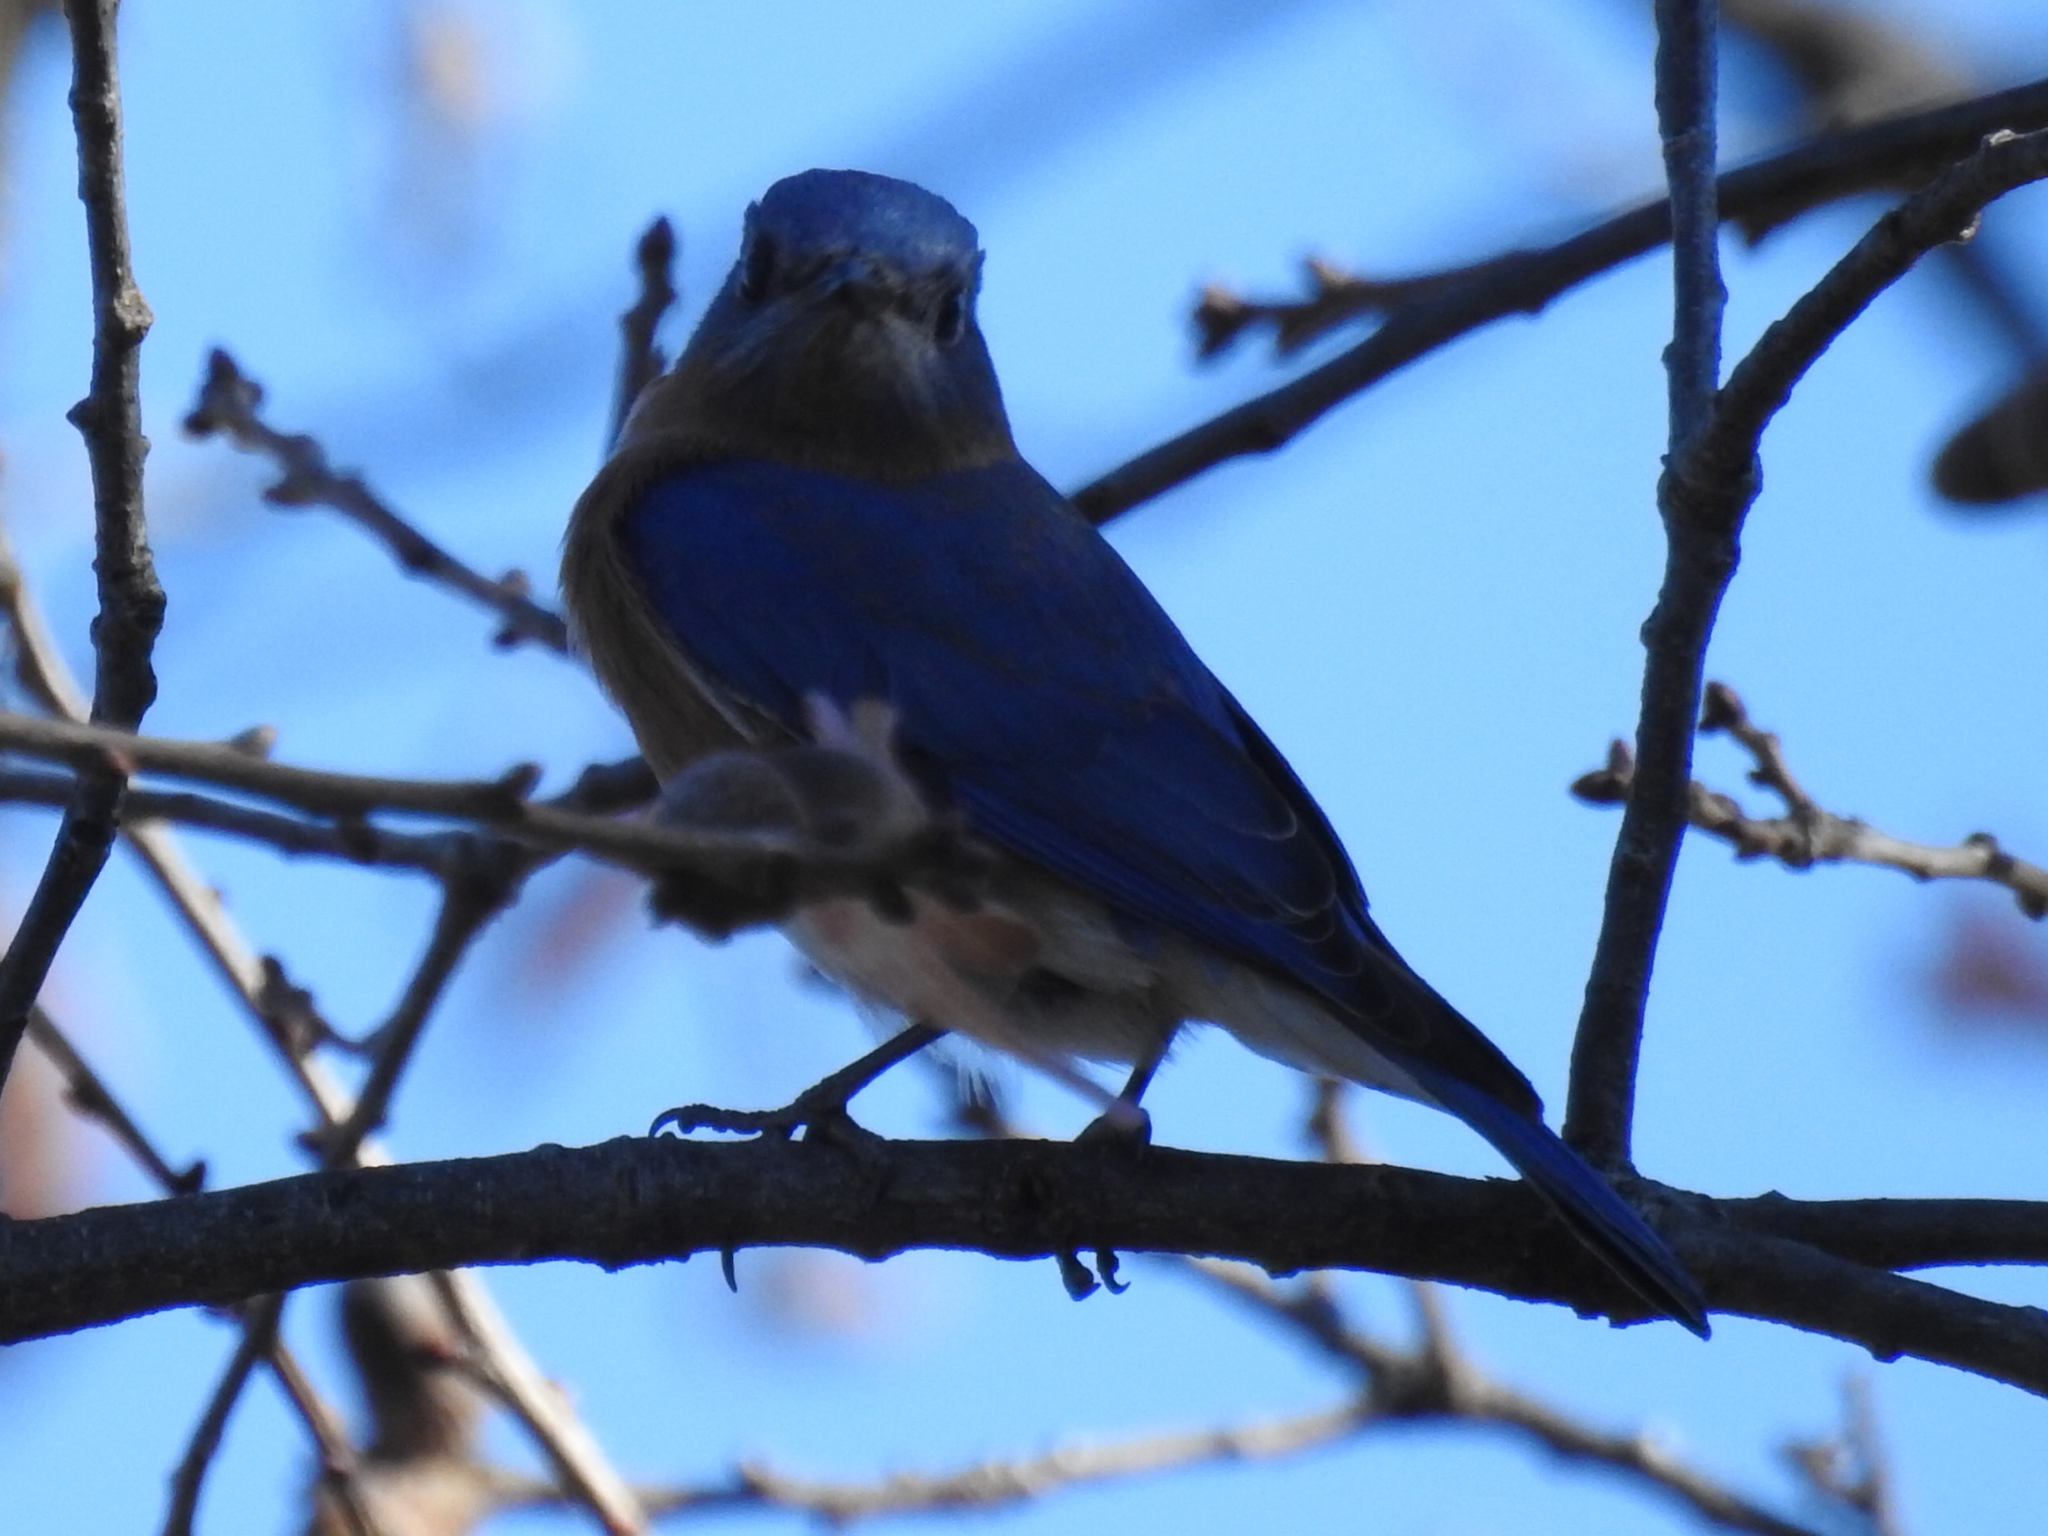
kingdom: Animalia
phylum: Chordata
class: Aves
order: Passeriformes
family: Turdidae
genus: Sialia
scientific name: Sialia sialis
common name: Eastern bluebird
